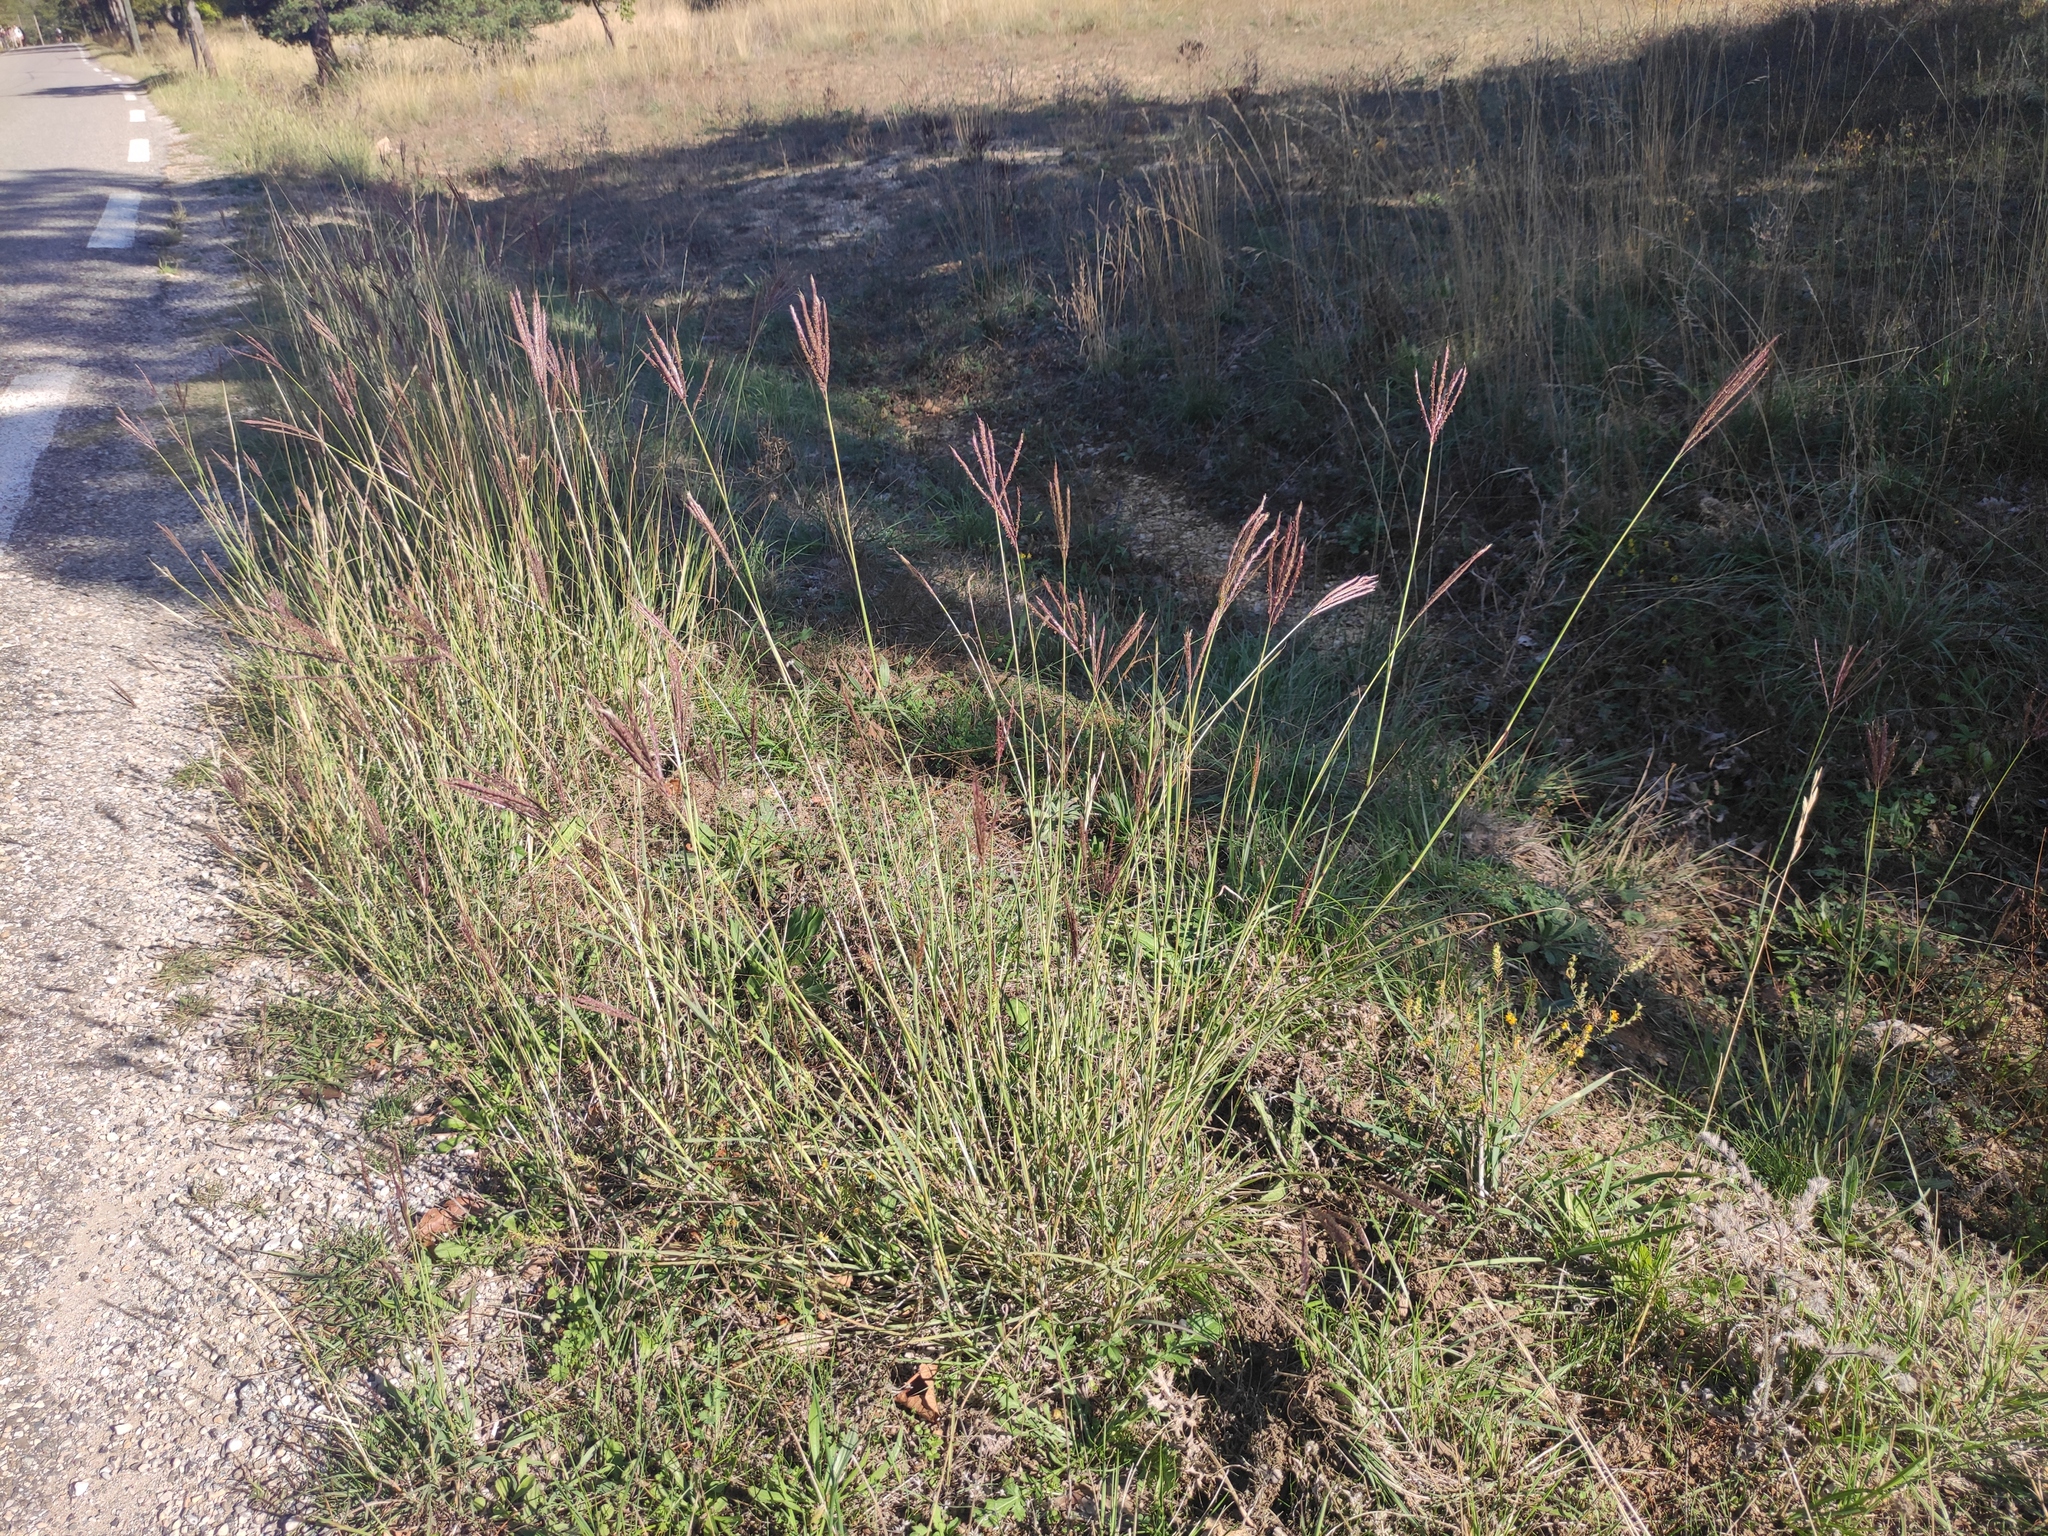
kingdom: Plantae
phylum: Tracheophyta
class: Liliopsida
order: Poales
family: Poaceae
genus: Bothriochloa
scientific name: Bothriochloa ischaemum
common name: Yellow bluestem
